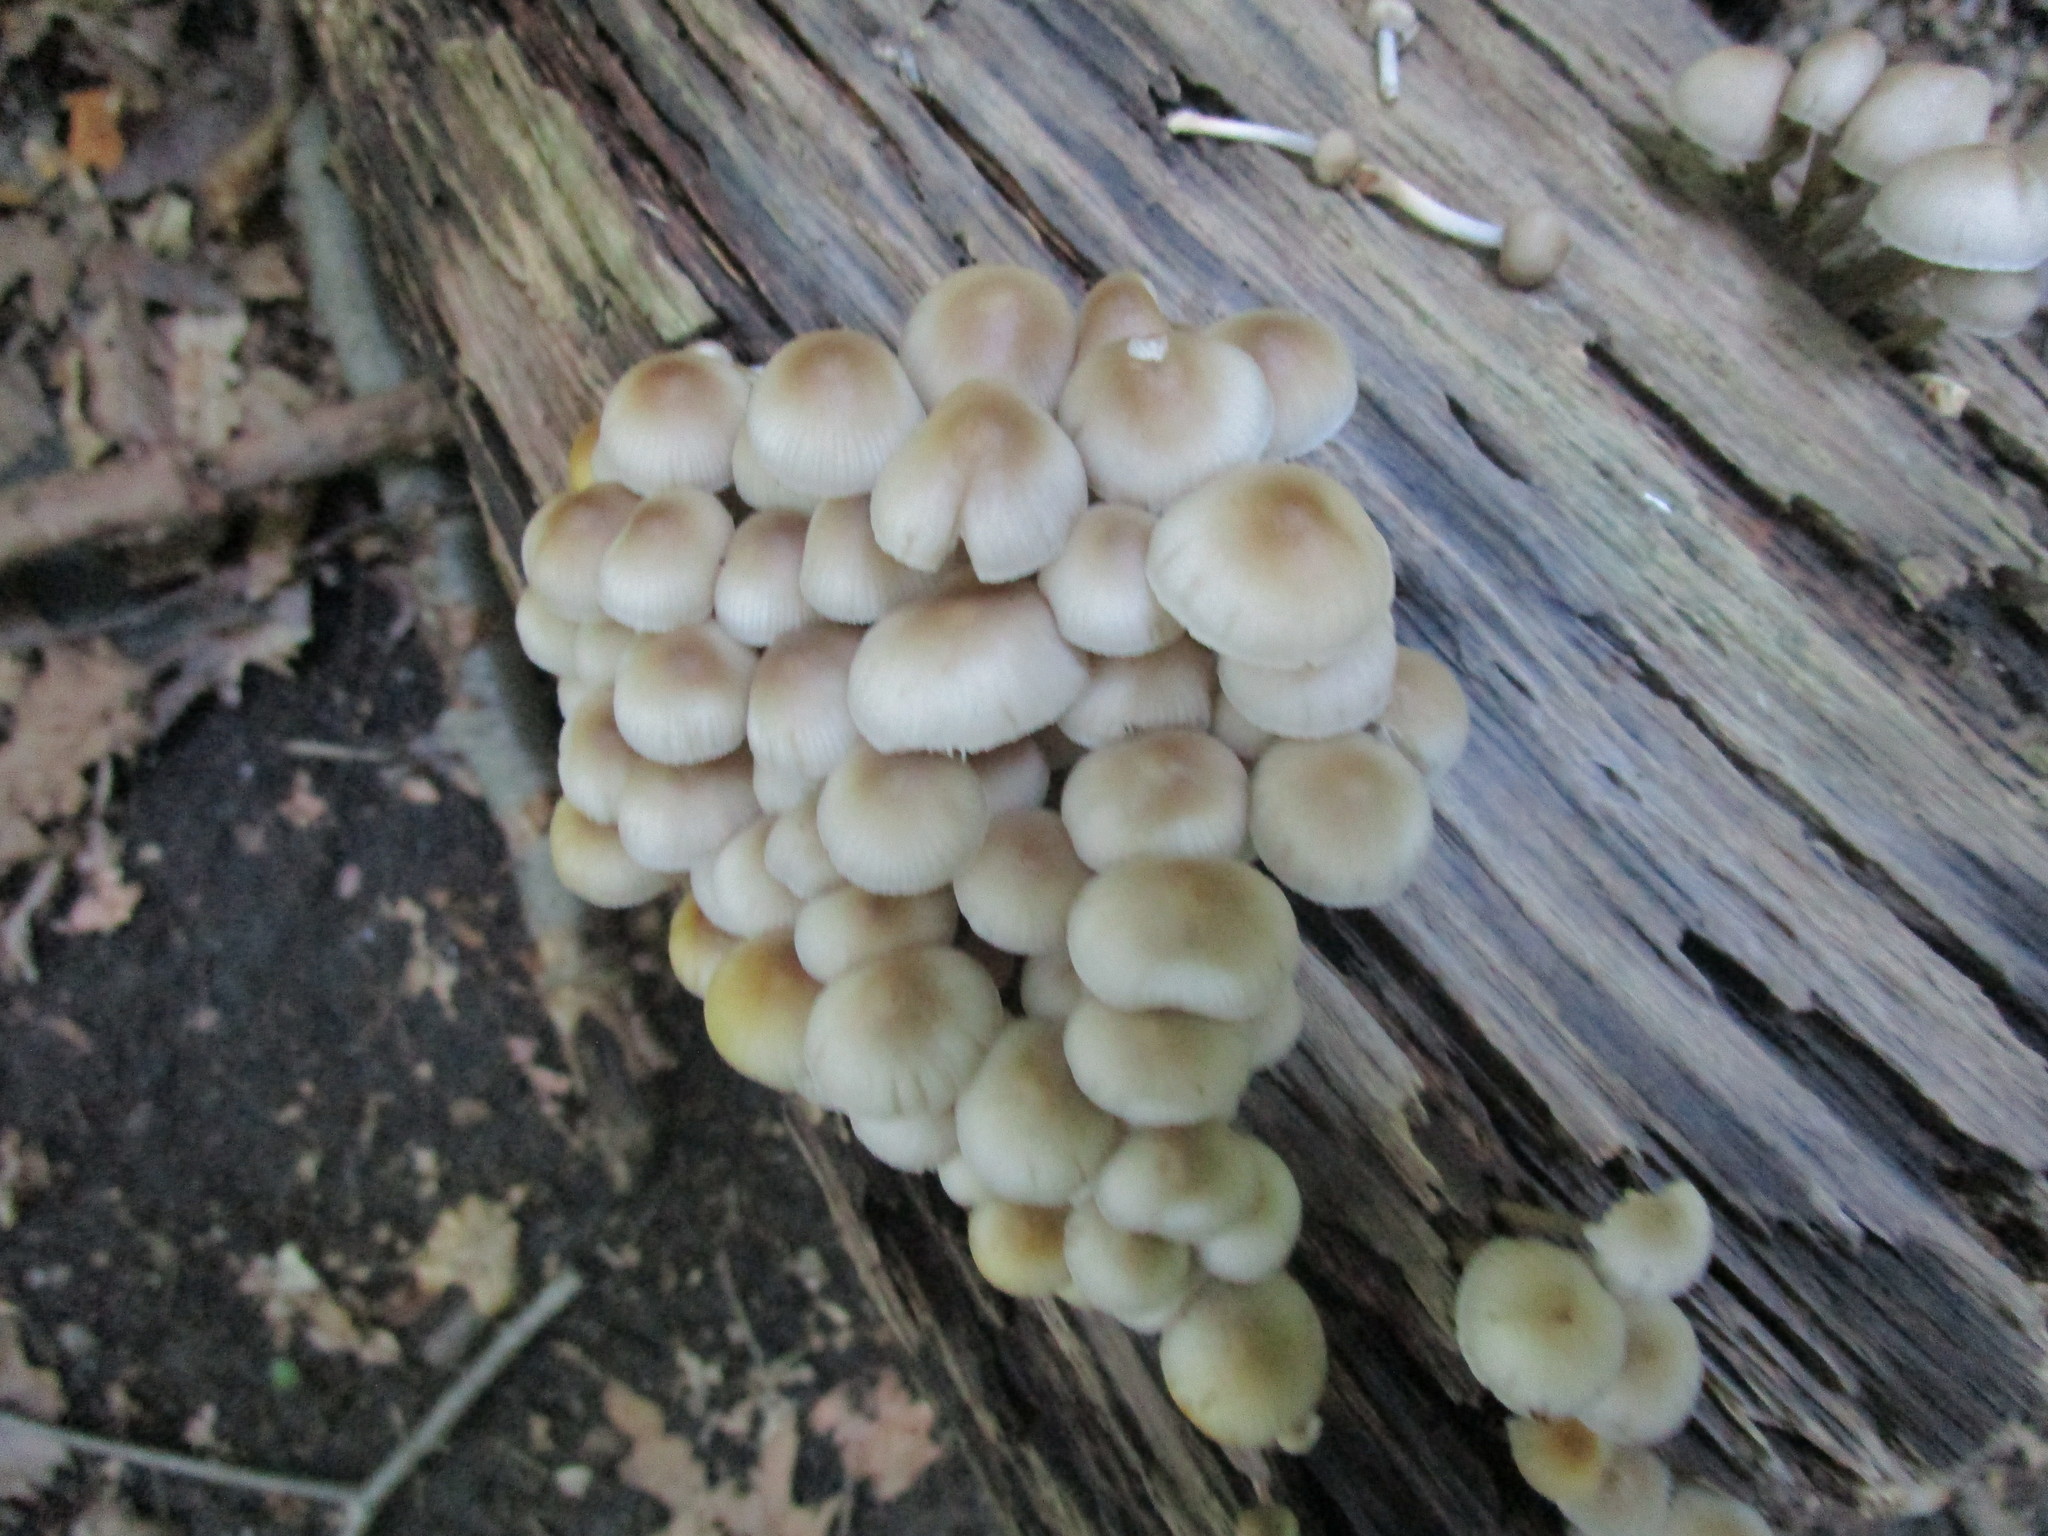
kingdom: Fungi
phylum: Basidiomycota
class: Agaricomycetes
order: Agaricales
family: Mycenaceae
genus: Mycena
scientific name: Mycena inclinata
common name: Clustered bonnet
